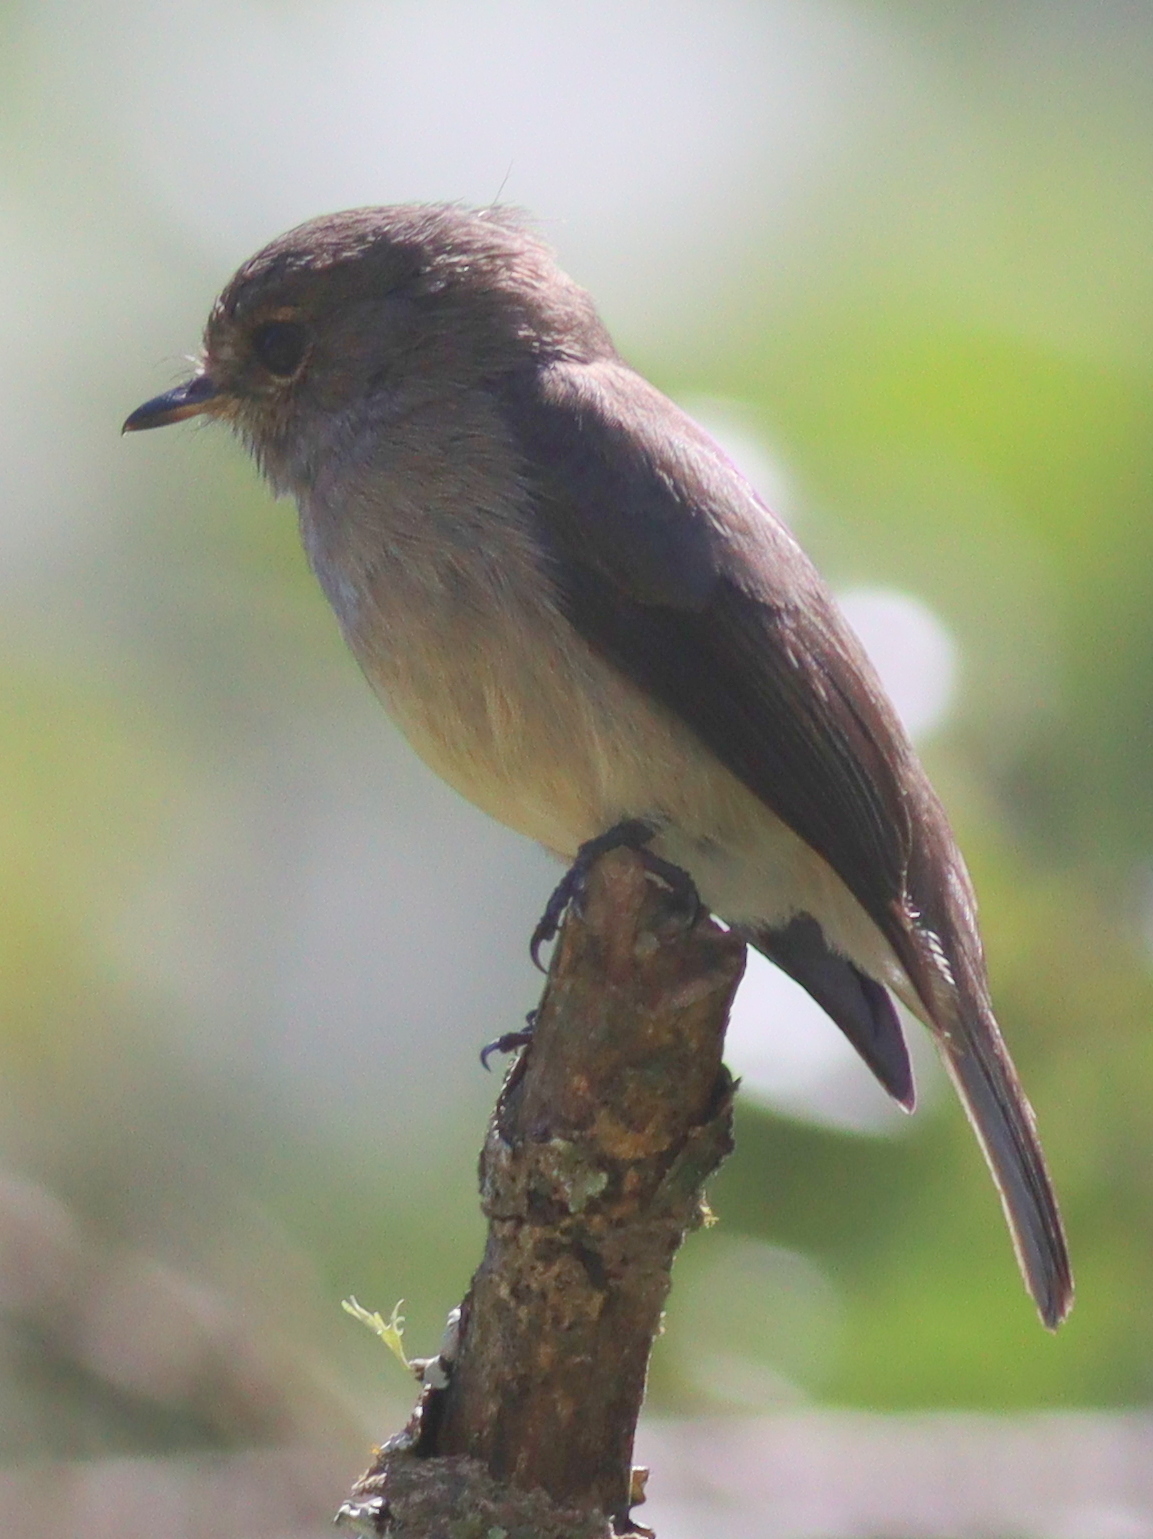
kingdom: Animalia
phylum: Chordata
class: Aves
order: Passeriformes
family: Muscicapidae
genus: Muscicapa
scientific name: Muscicapa adusta
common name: African dusky flycatcher
